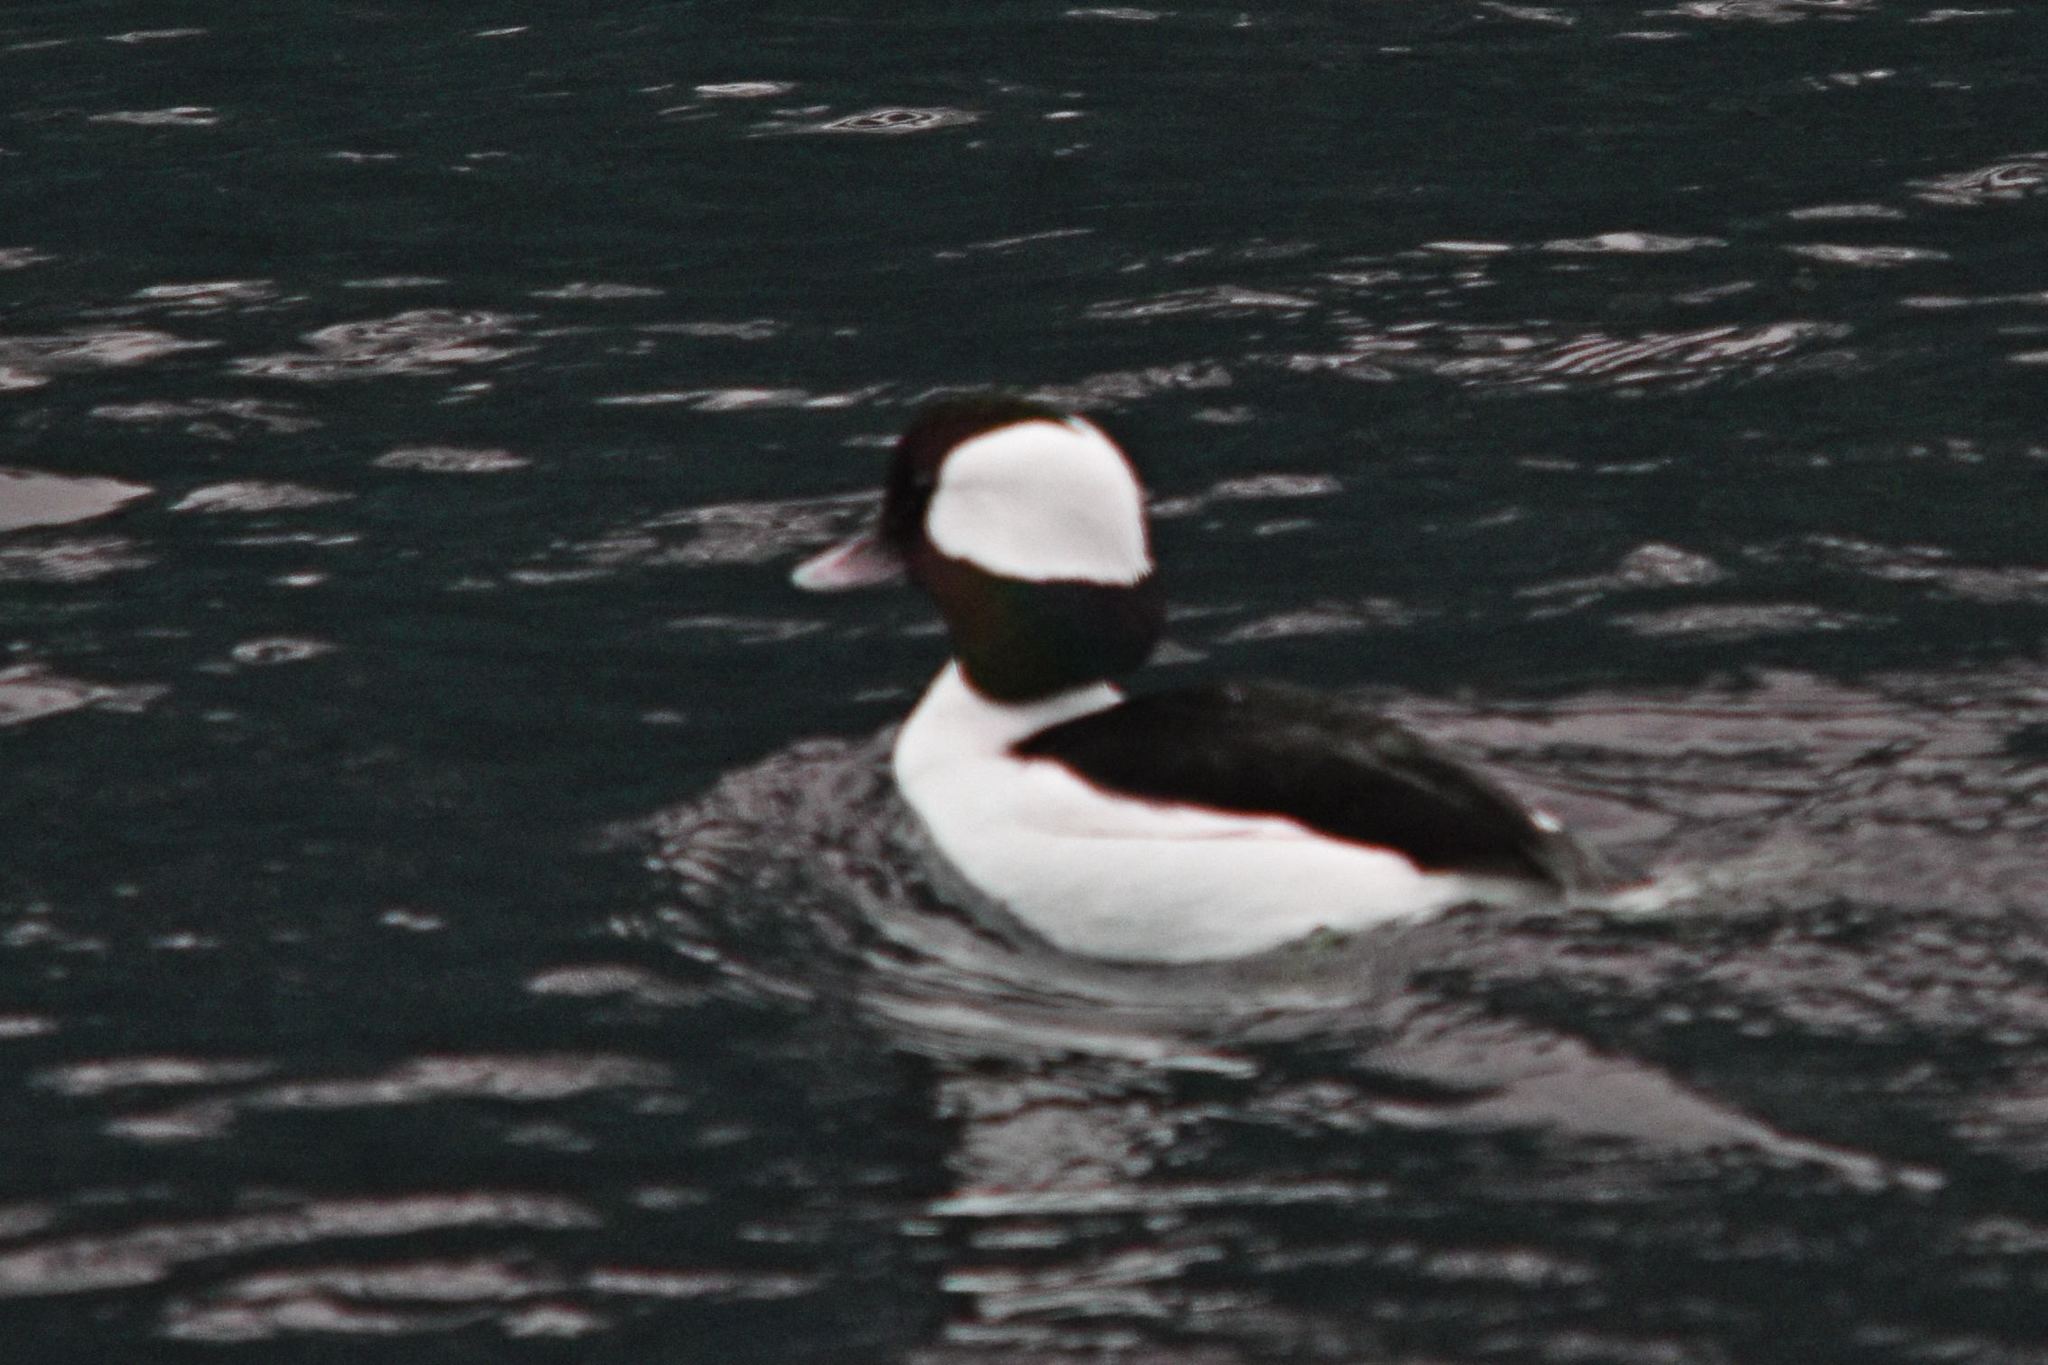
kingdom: Animalia
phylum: Chordata
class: Aves
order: Anseriformes
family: Anatidae
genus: Bucephala
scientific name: Bucephala albeola
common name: Bufflehead
